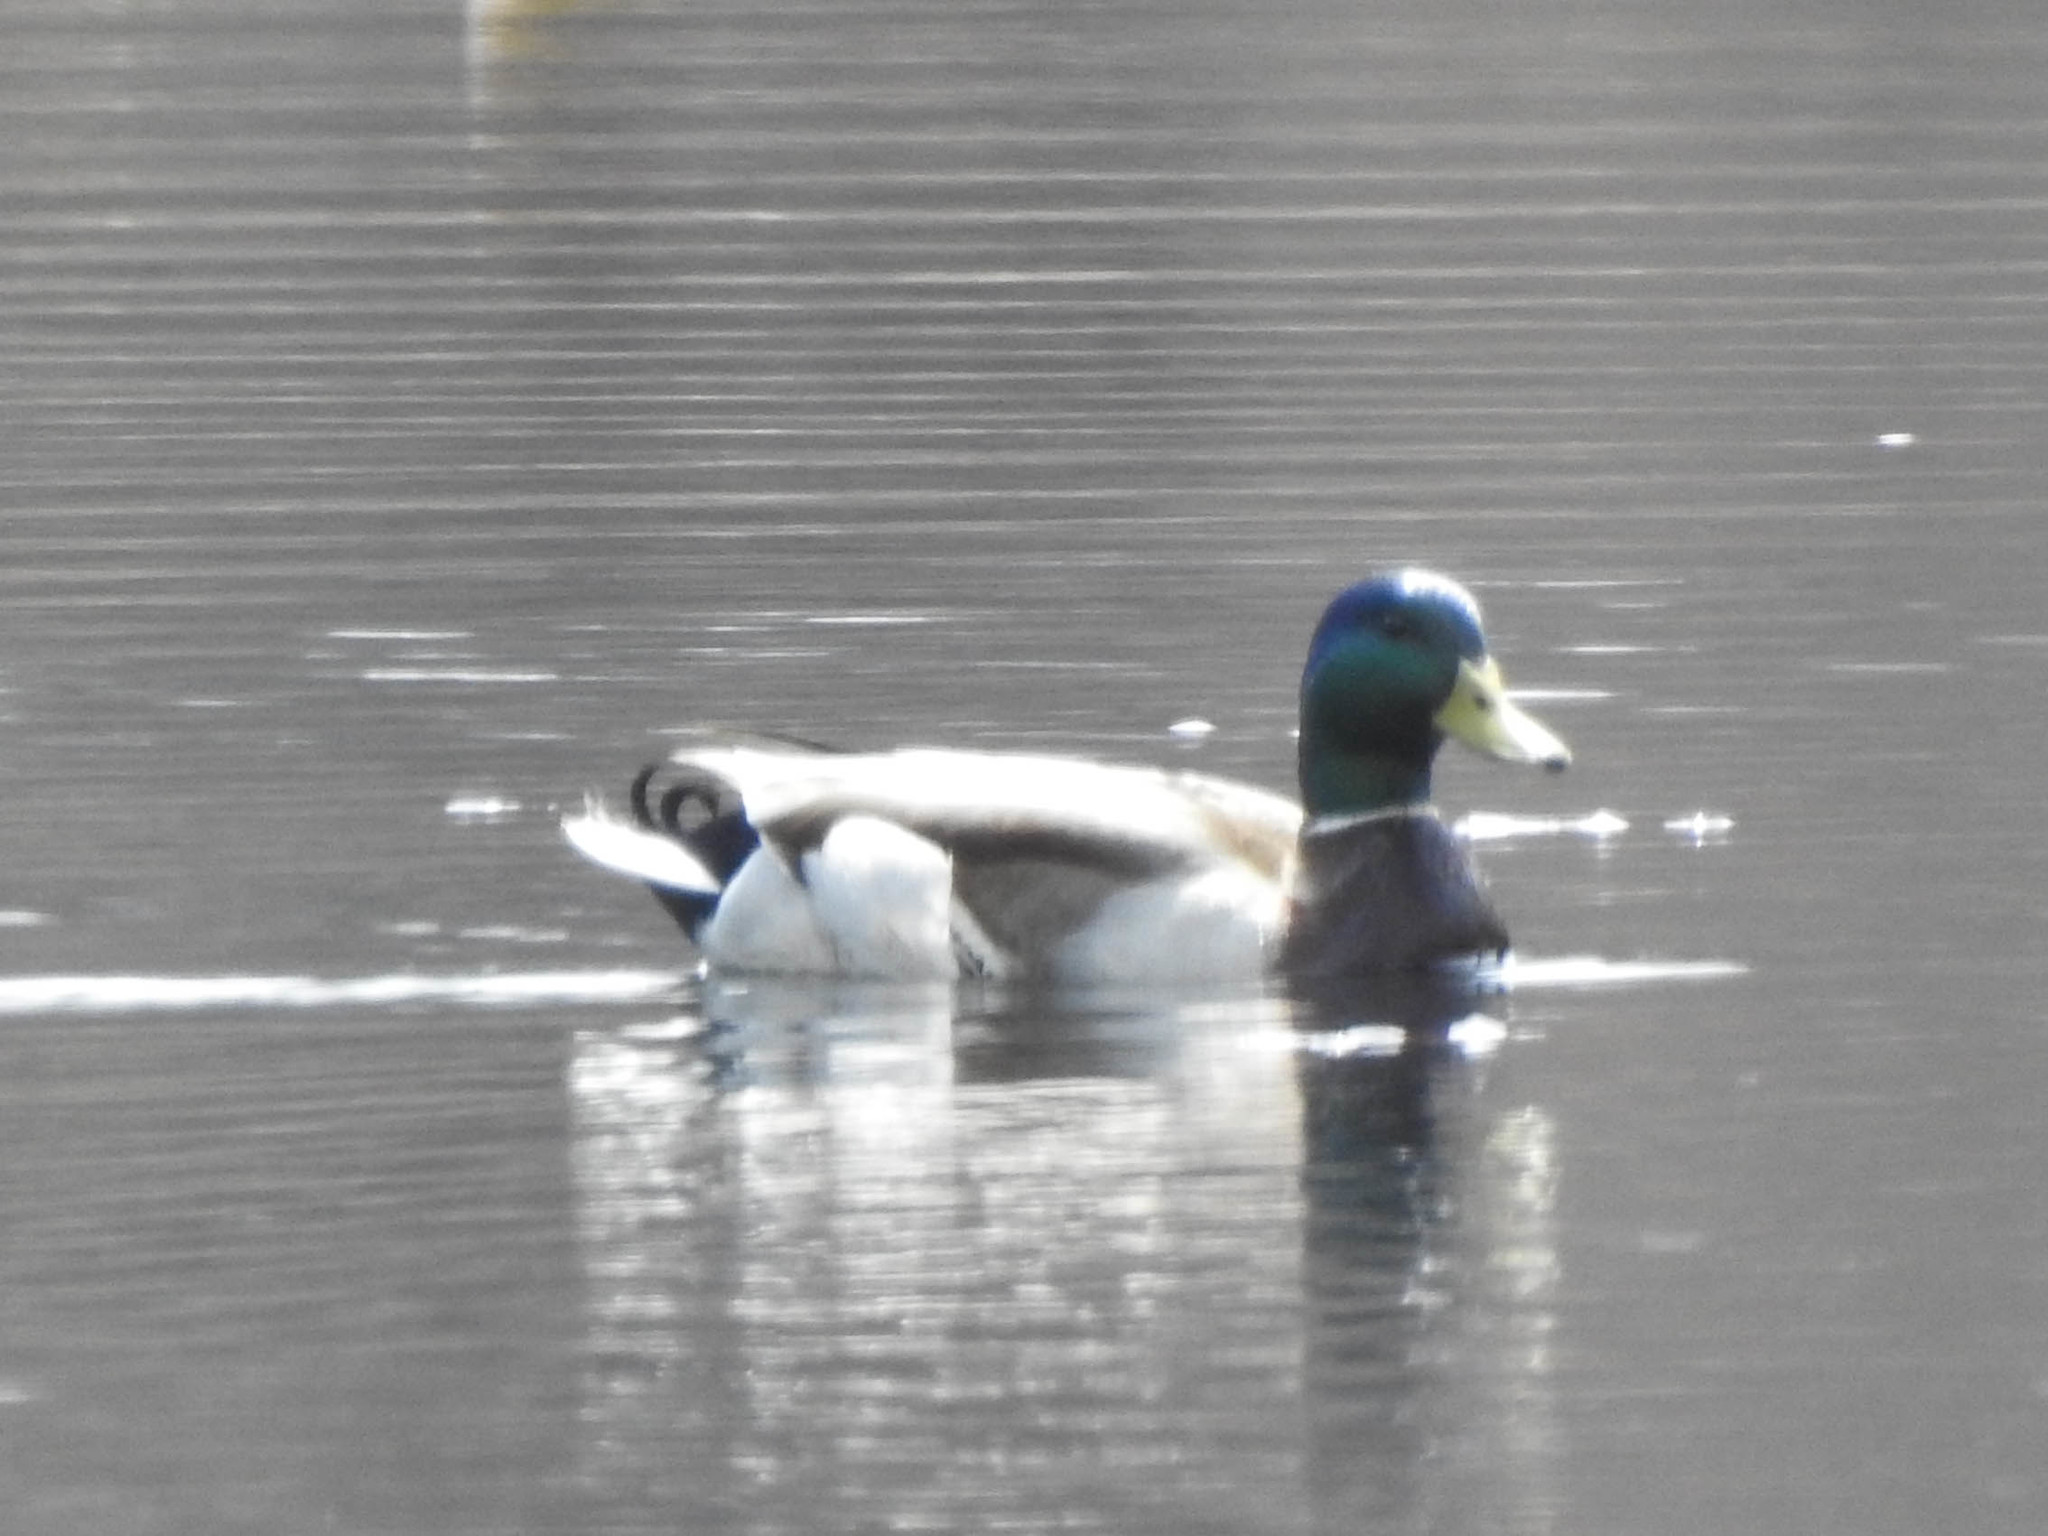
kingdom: Animalia
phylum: Chordata
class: Aves
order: Anseriformes
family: Anatidae
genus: Anas
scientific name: Anas platyrhynchos
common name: Mallard
